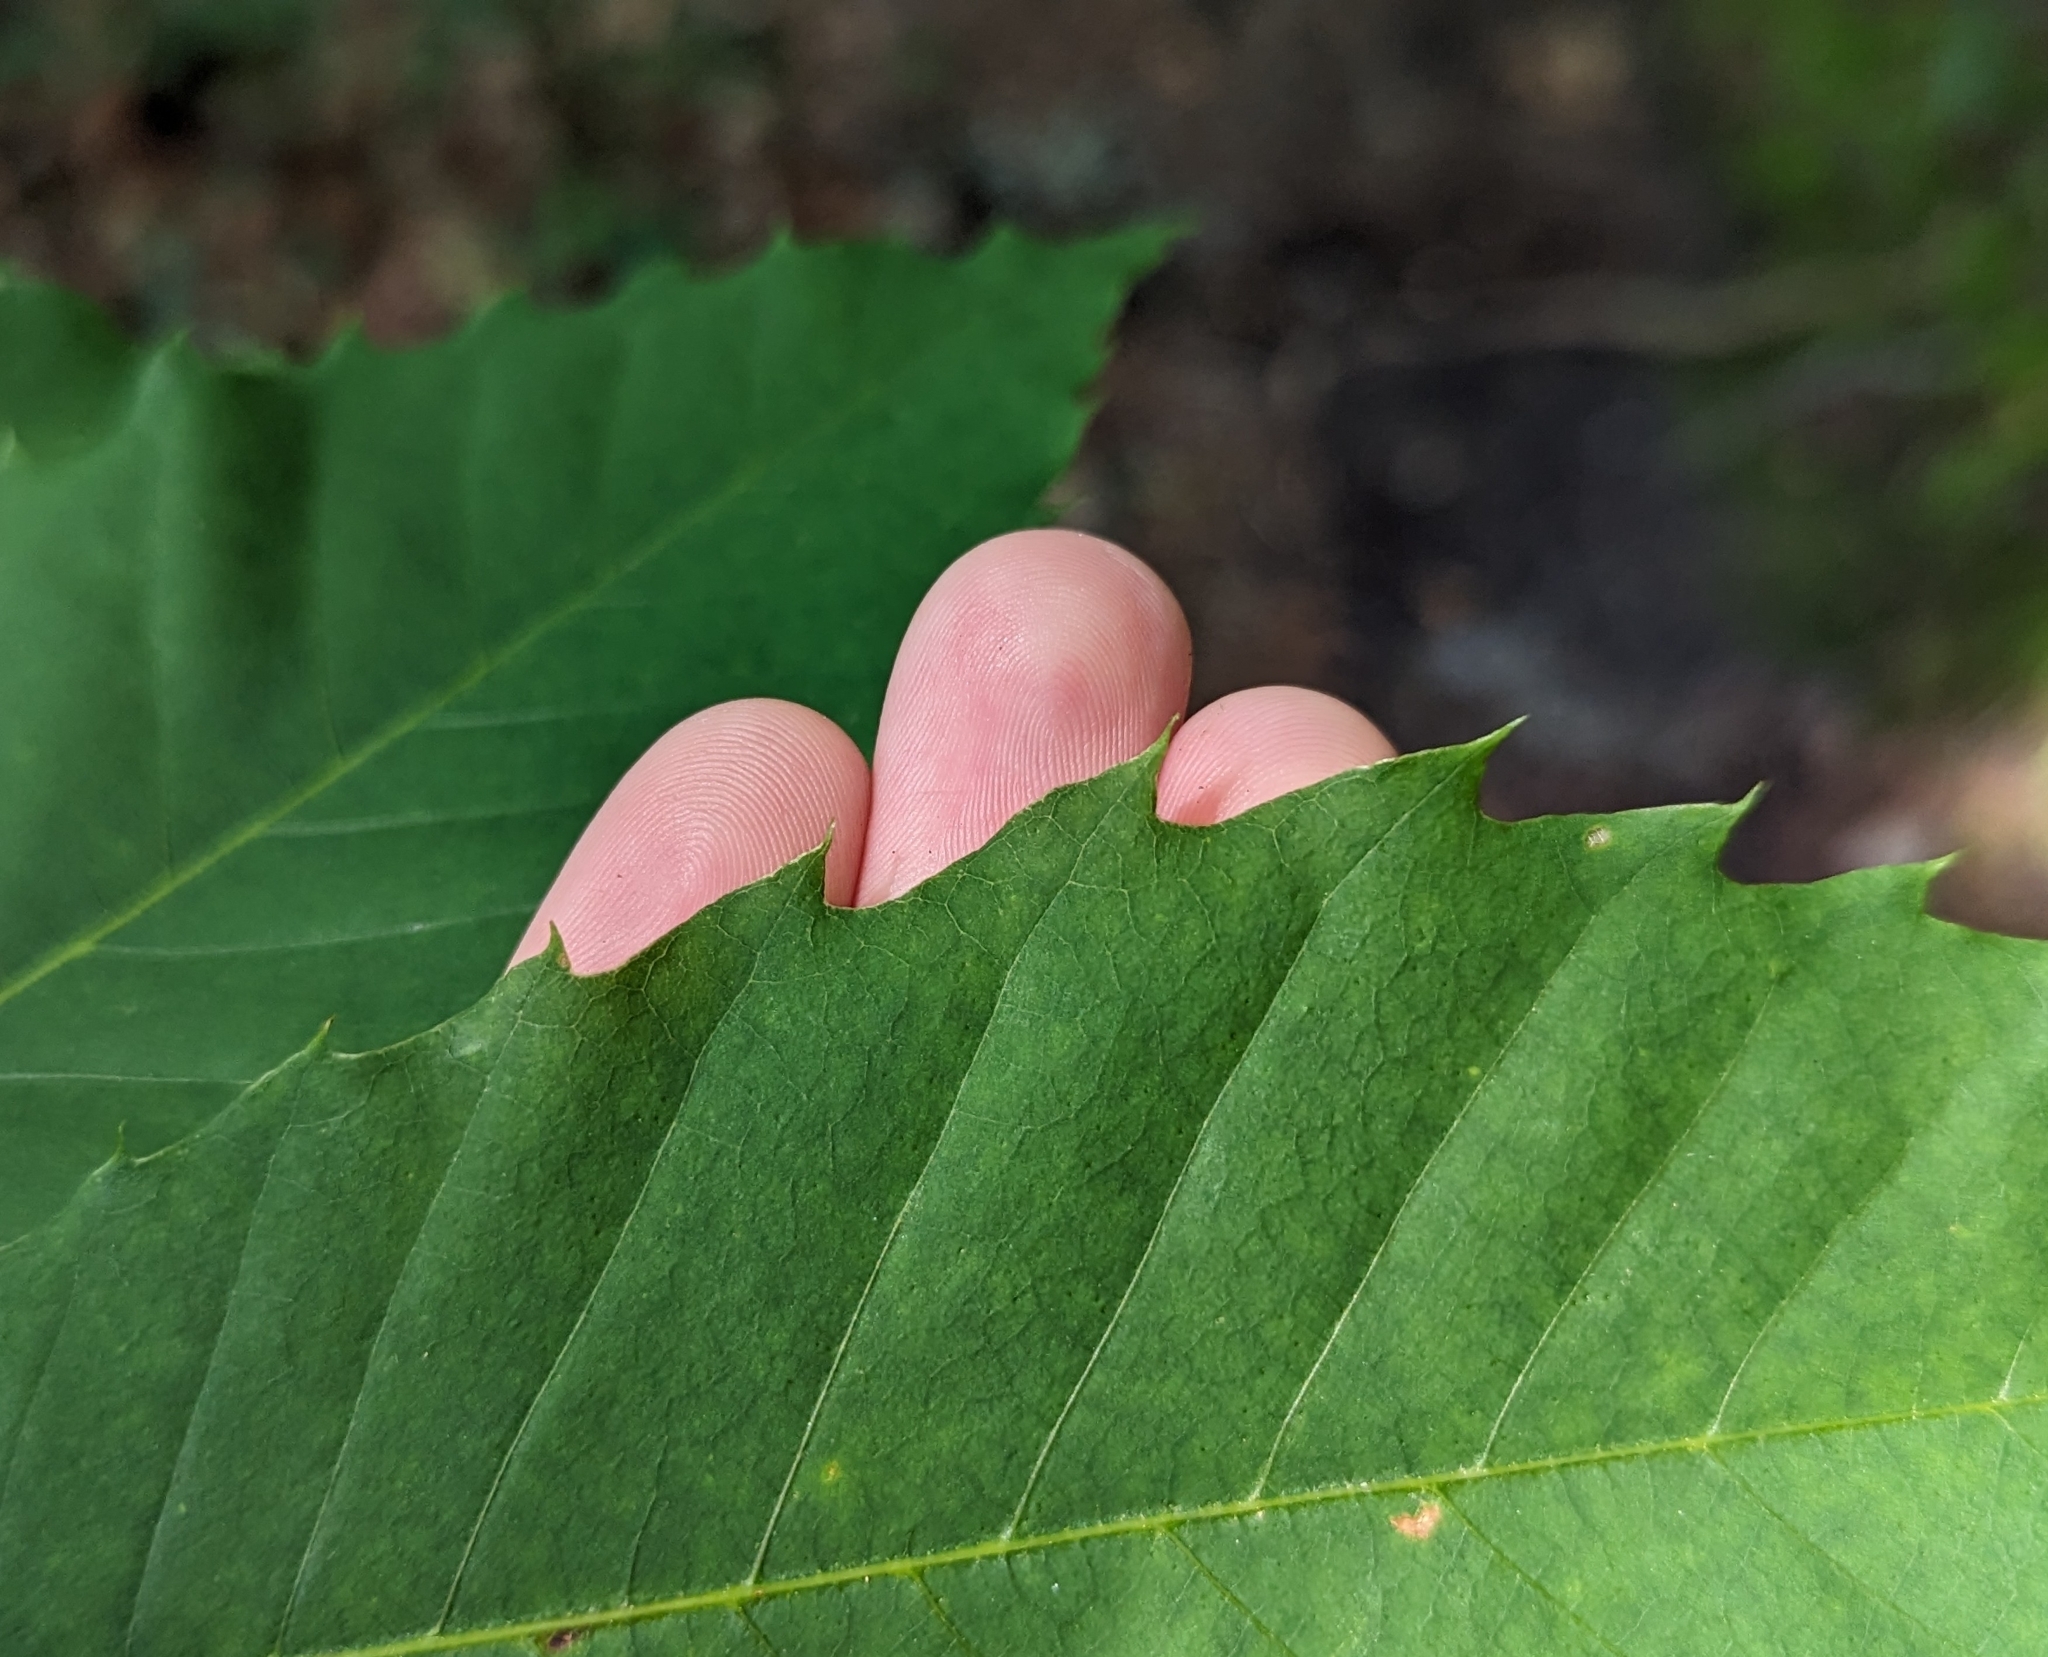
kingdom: Plantae
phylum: Tracheophyta
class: Magnoliopsida
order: Fagales
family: Fagaceae
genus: Castanea
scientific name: Castanea dentata
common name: American chestnut
